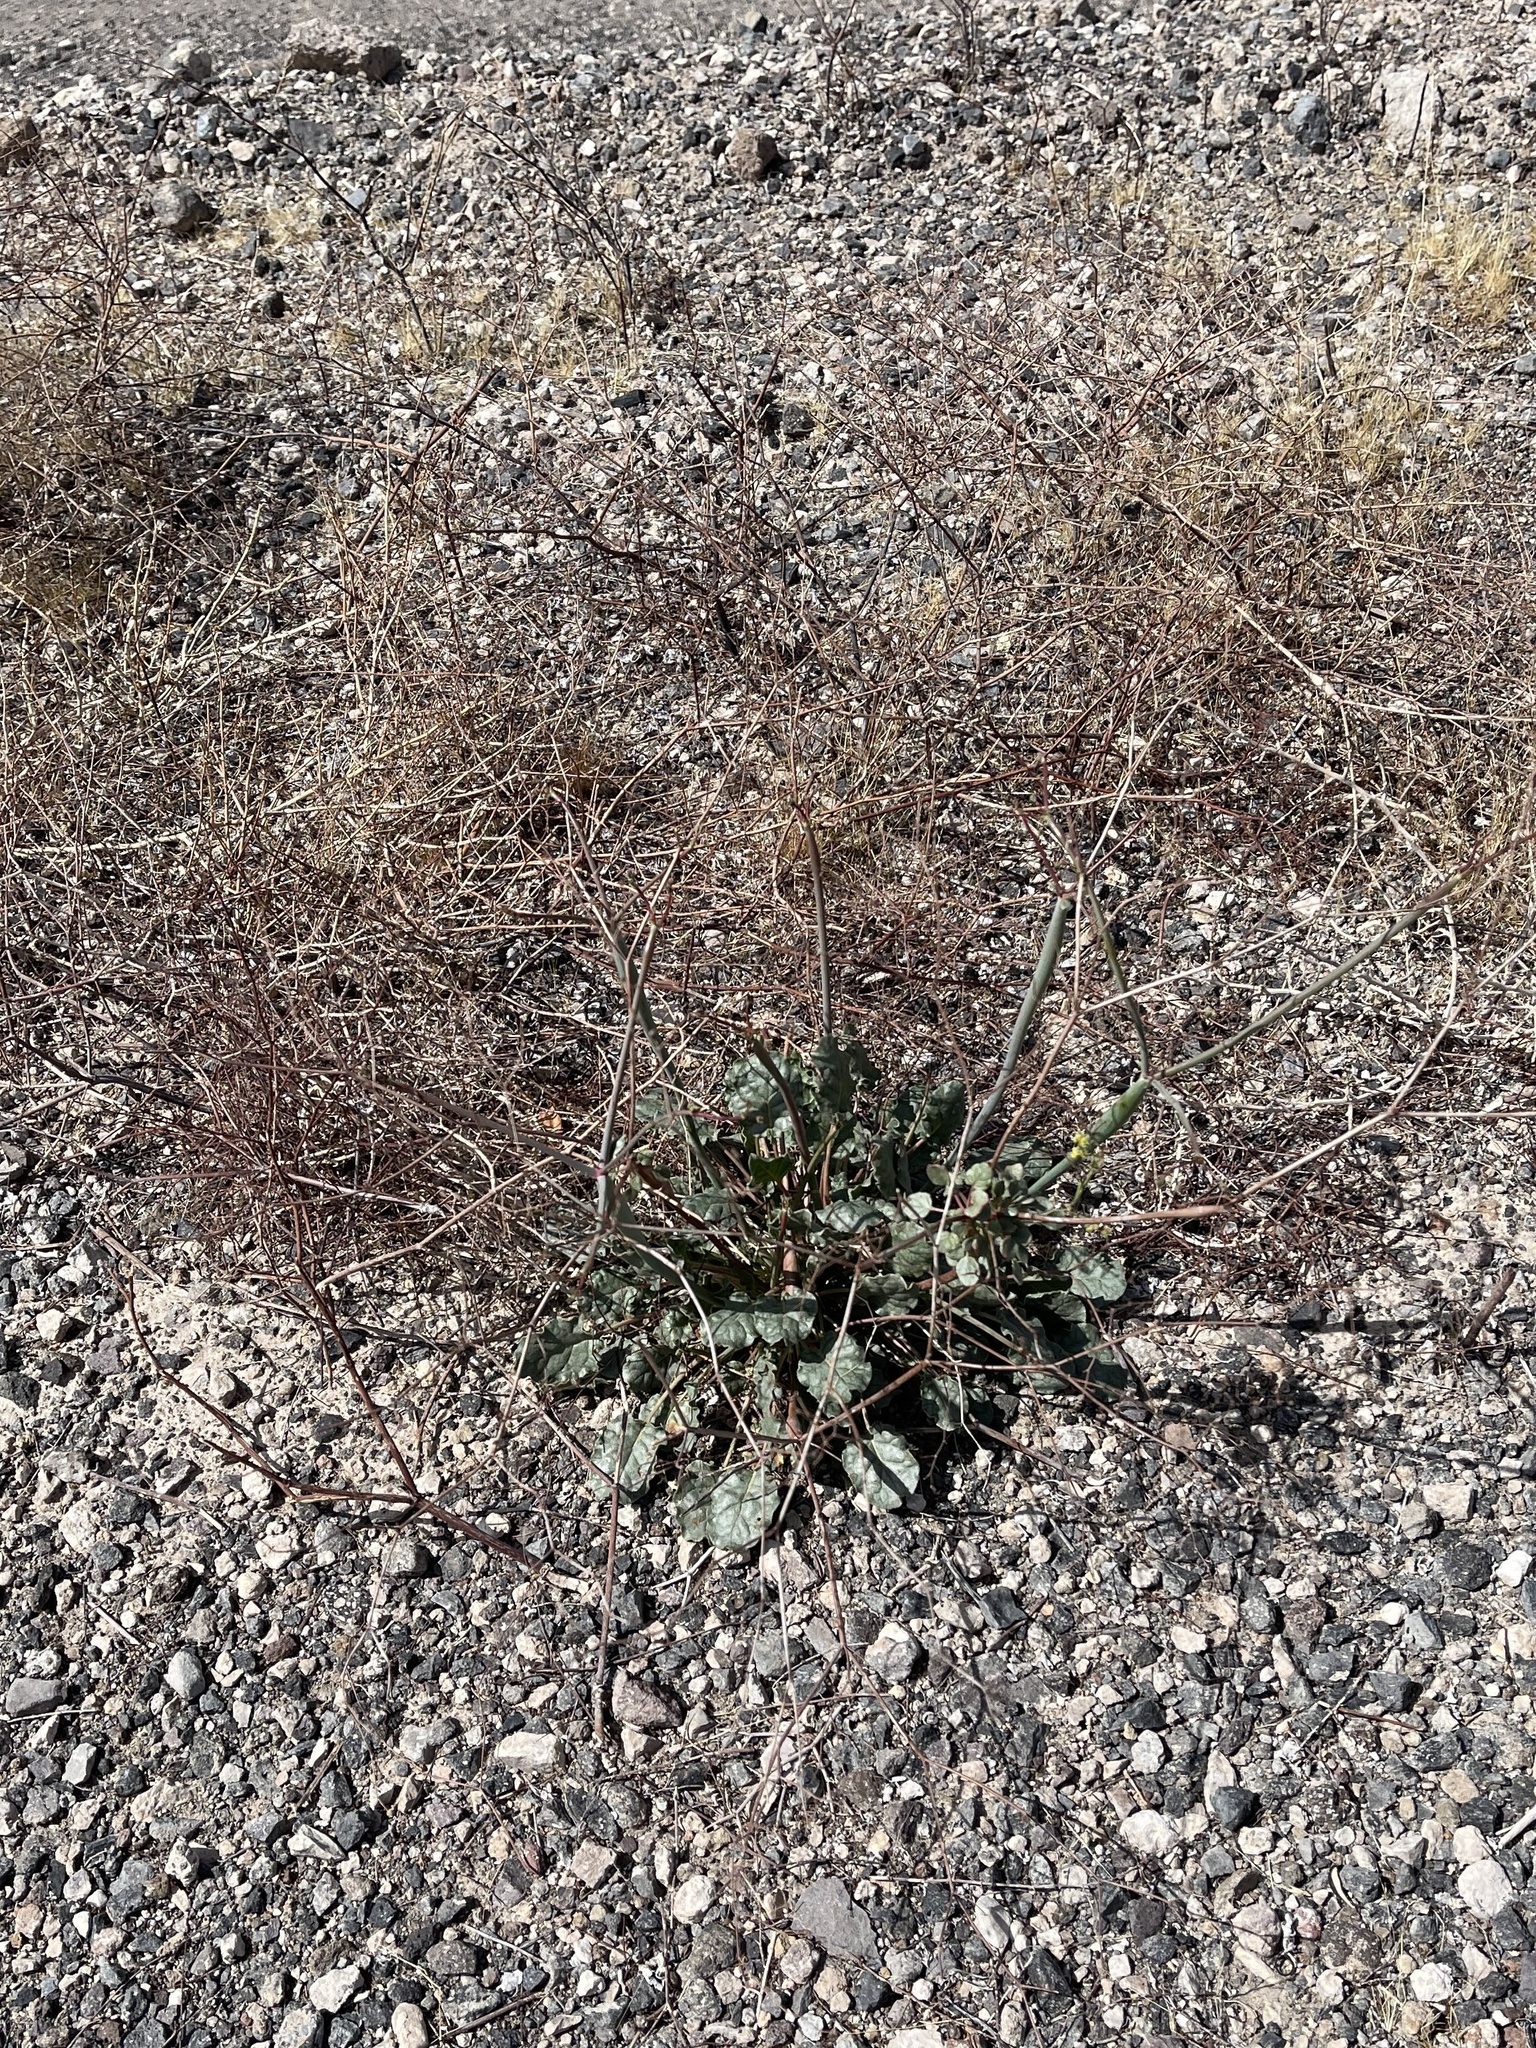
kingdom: Plantae
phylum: Tracheophyta
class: Magnoliopsida
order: Caryophyllales
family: Polygonaceae
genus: Eriogonum
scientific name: Eriogonum inflatum
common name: Desert trumpet
